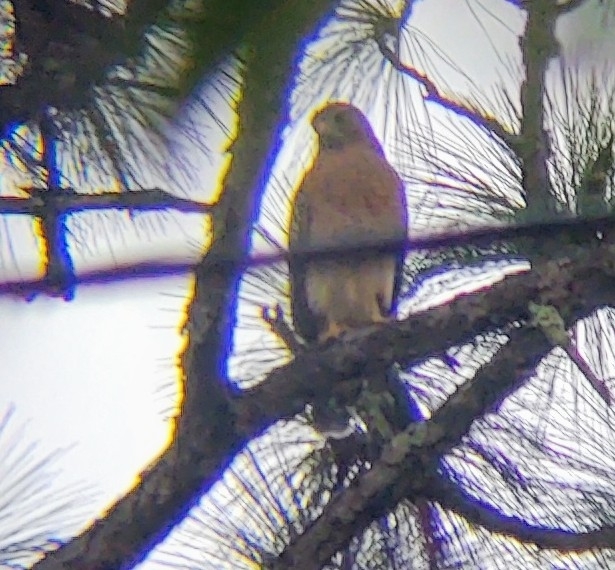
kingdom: Animalia
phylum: Chordata
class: Aves
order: Accipitriformes
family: Accipitridae
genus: Buteo
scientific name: Buteo lineatus
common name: Red-shouldered hawk
